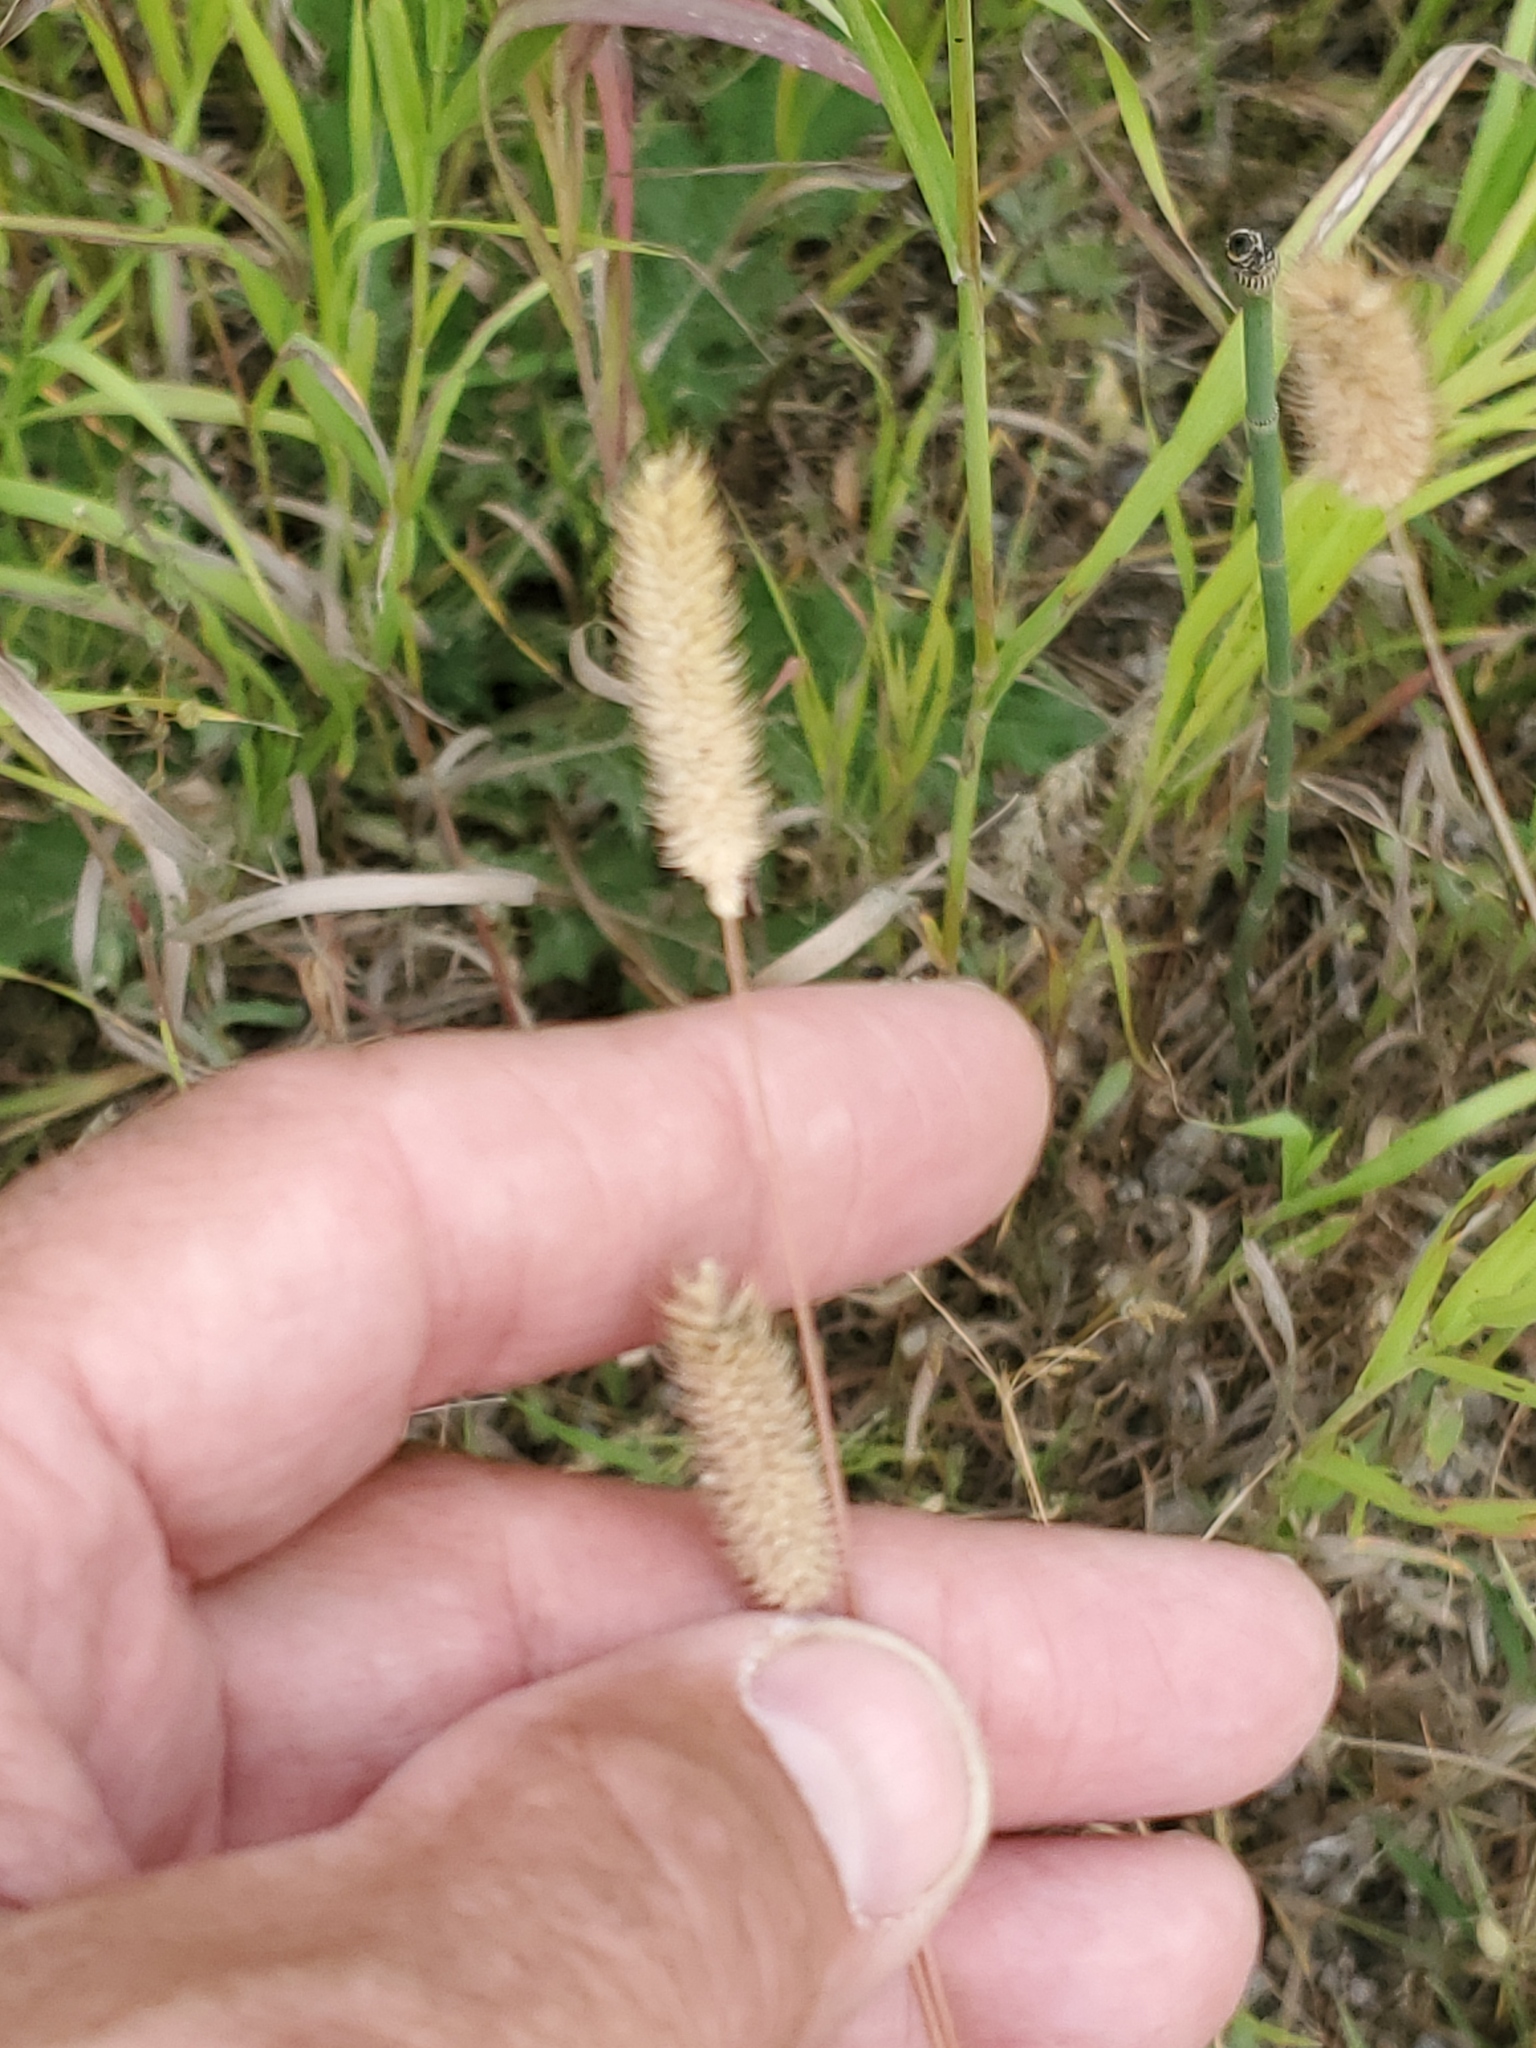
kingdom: Plantae
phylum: Tracheophyta
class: Liliopsida
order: Poales
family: Poaceae
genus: Phleum
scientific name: Phleum pratense
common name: Timothy grass
